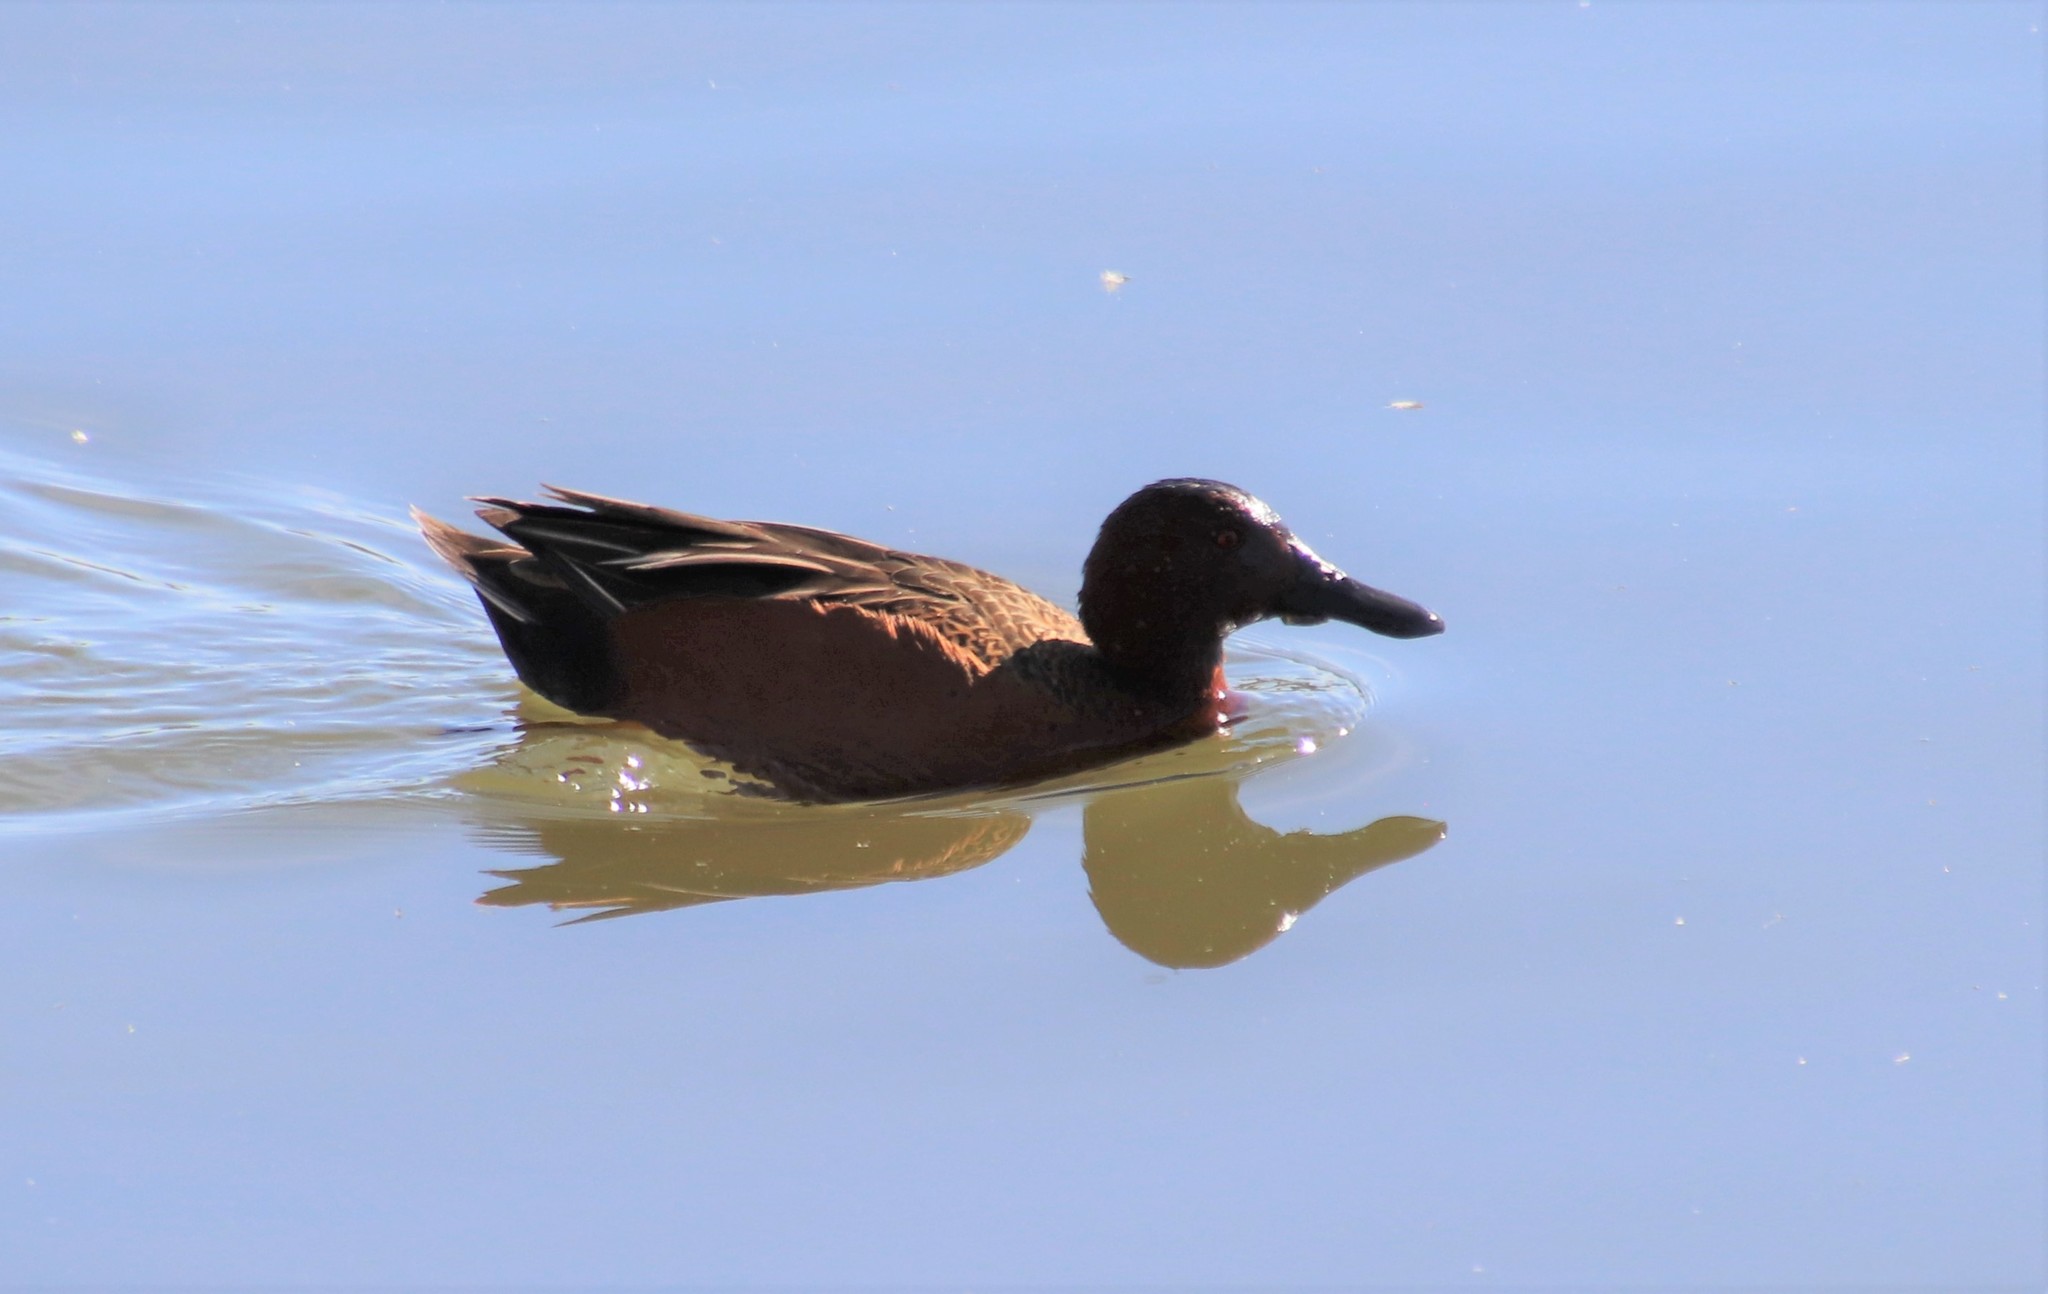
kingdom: Animalia
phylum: Chordata
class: Aves
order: Anseriformes
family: Anatidae
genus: Spatula
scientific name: Spatula cyanoptera
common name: Cinnamon teal
